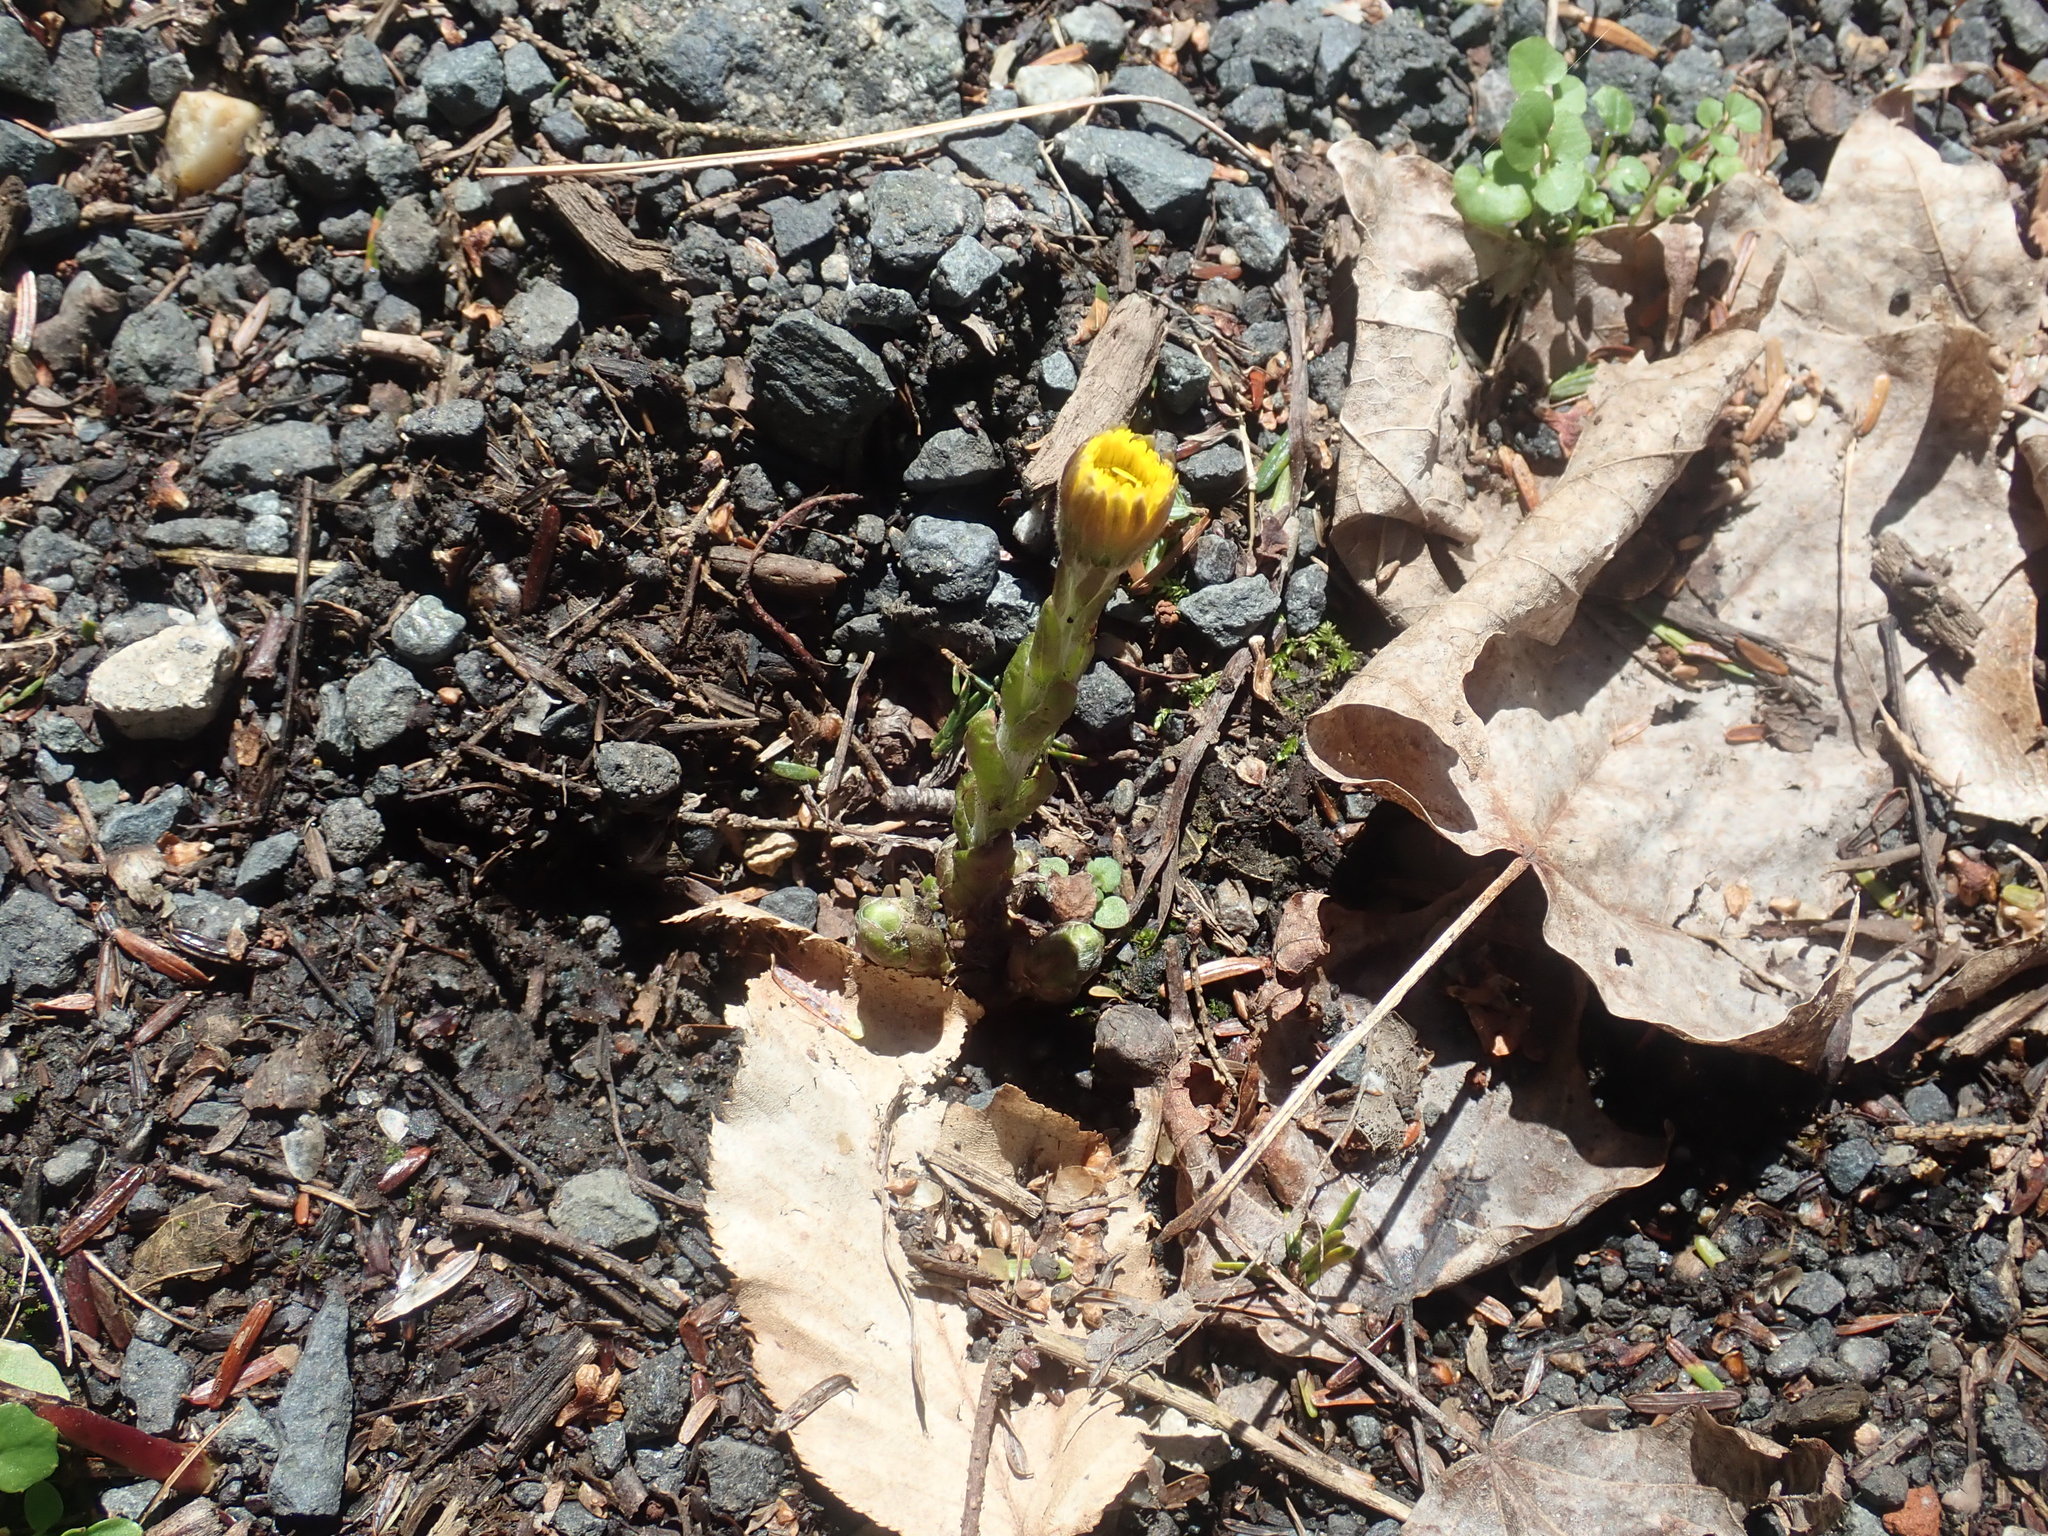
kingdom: Plantae
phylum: Tracheophyta
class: Magnoliopsida
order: Asterales
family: Asteraceae
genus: Tussilago
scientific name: Tussilago farfara
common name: Coltsfoot
